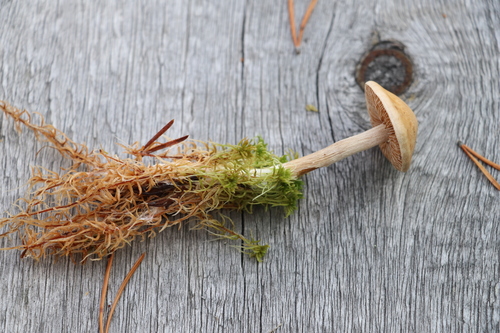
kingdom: Fungi
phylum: Basidiomycota
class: Agaricomycetes
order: Agaricales
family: Hymenogastraceae
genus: Hebeloma
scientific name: Hebeloma
